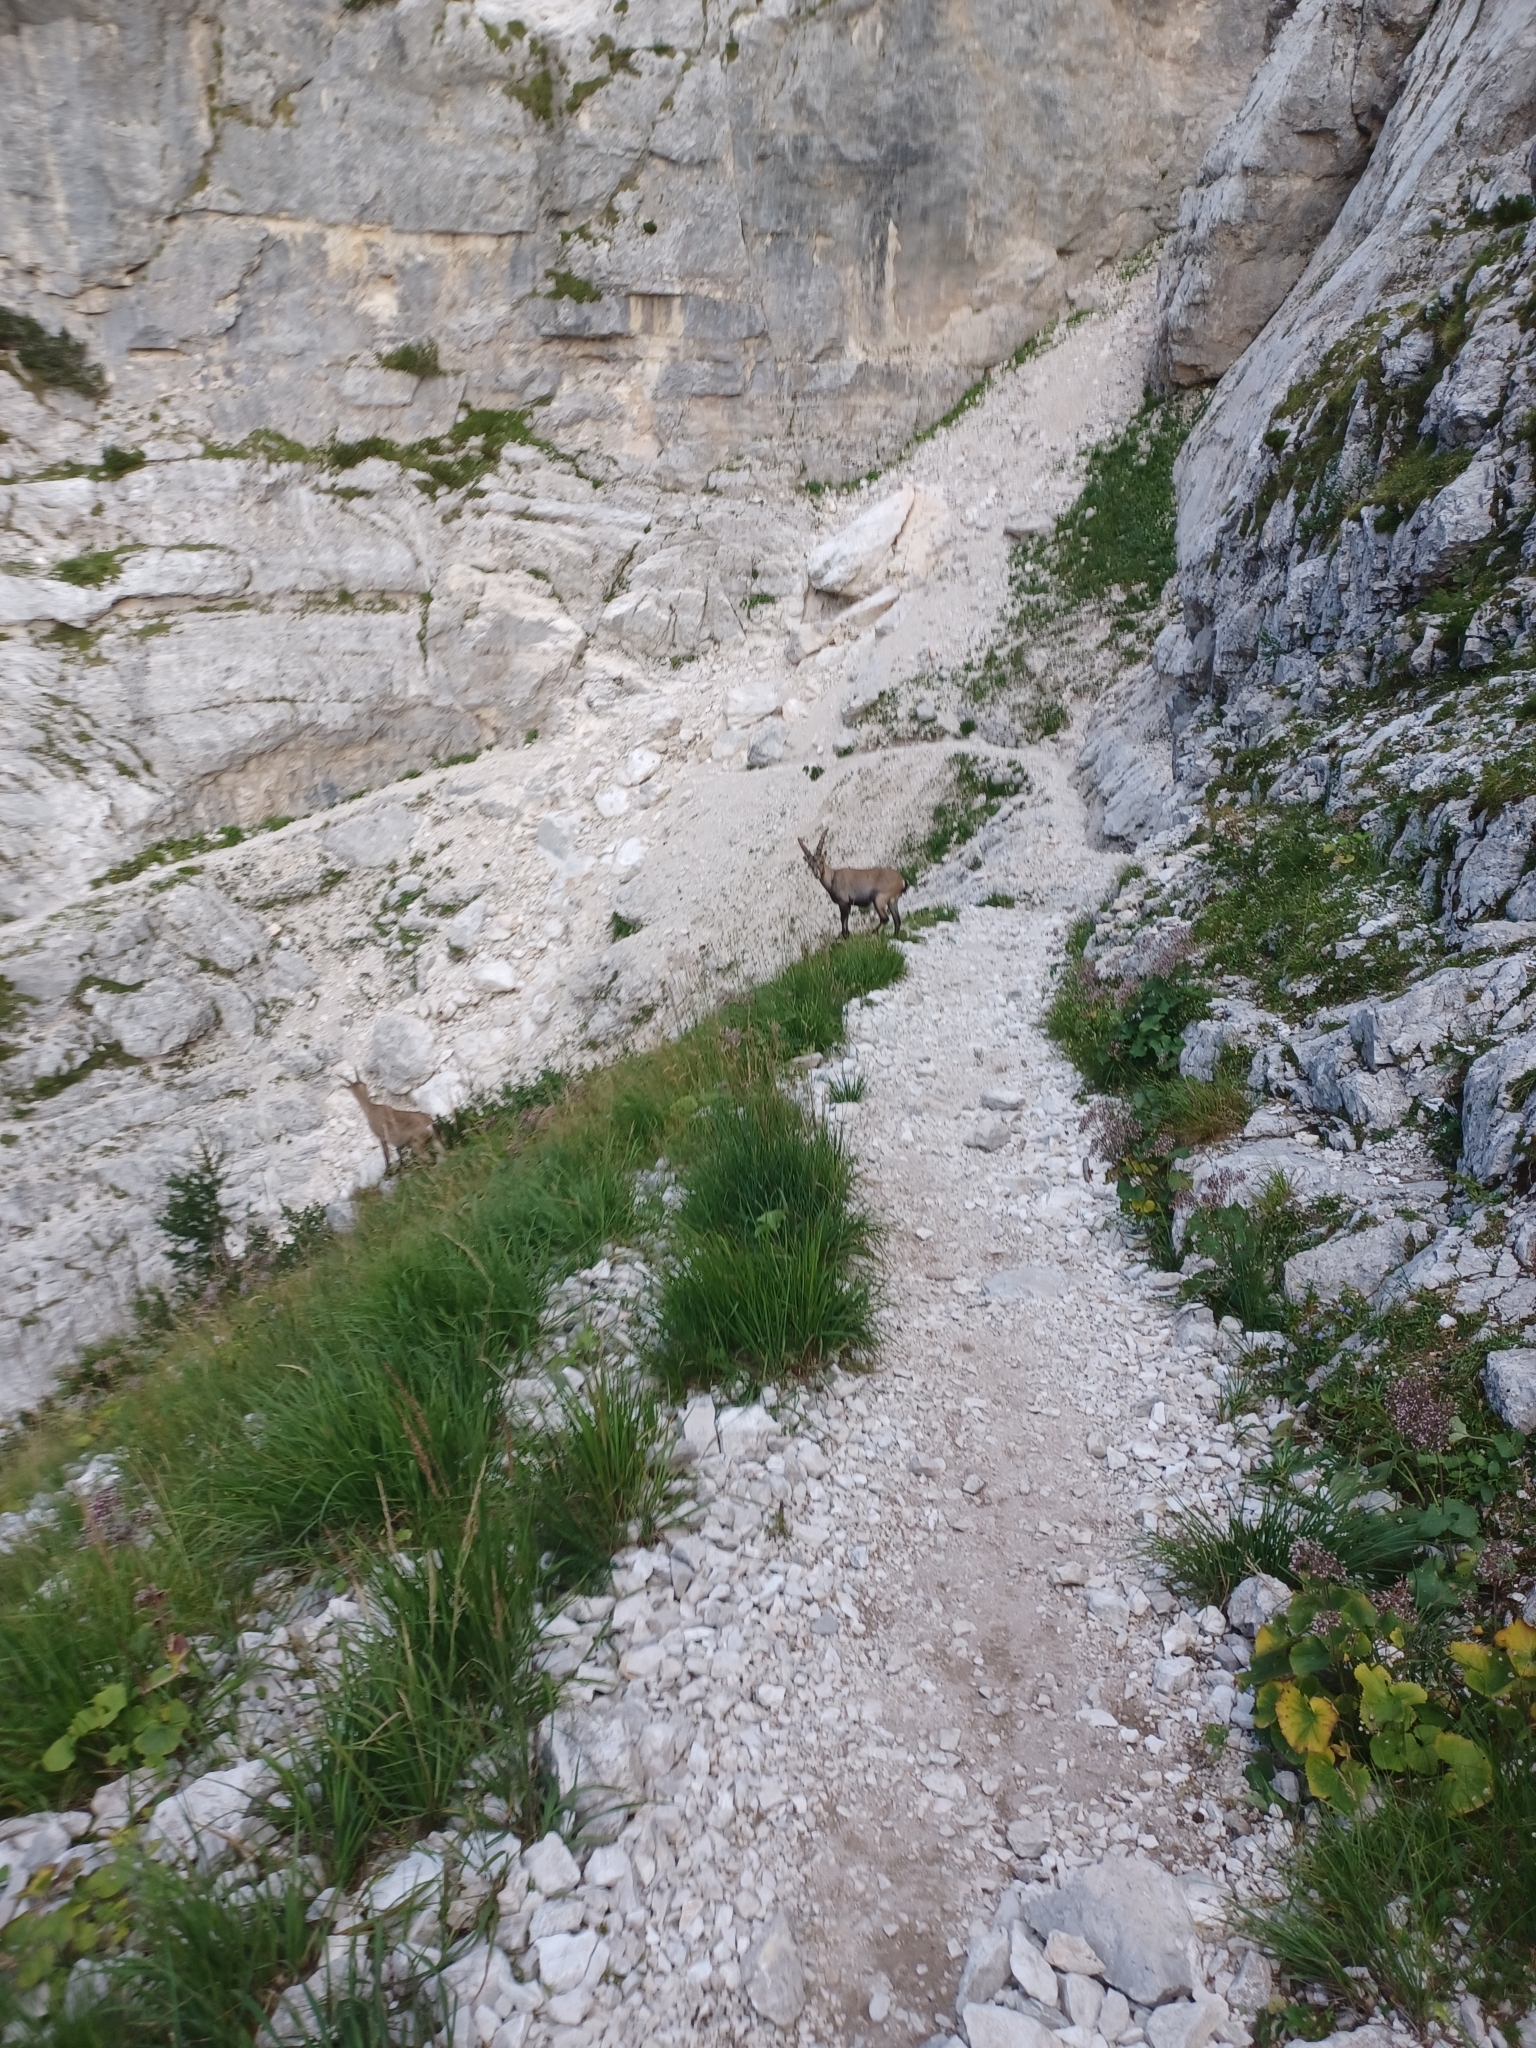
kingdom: Animalia
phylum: Chordata
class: Mammalia
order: Artiodactyla
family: Bovidae
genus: Capra
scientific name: Capra ibex
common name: Alpine ibex
